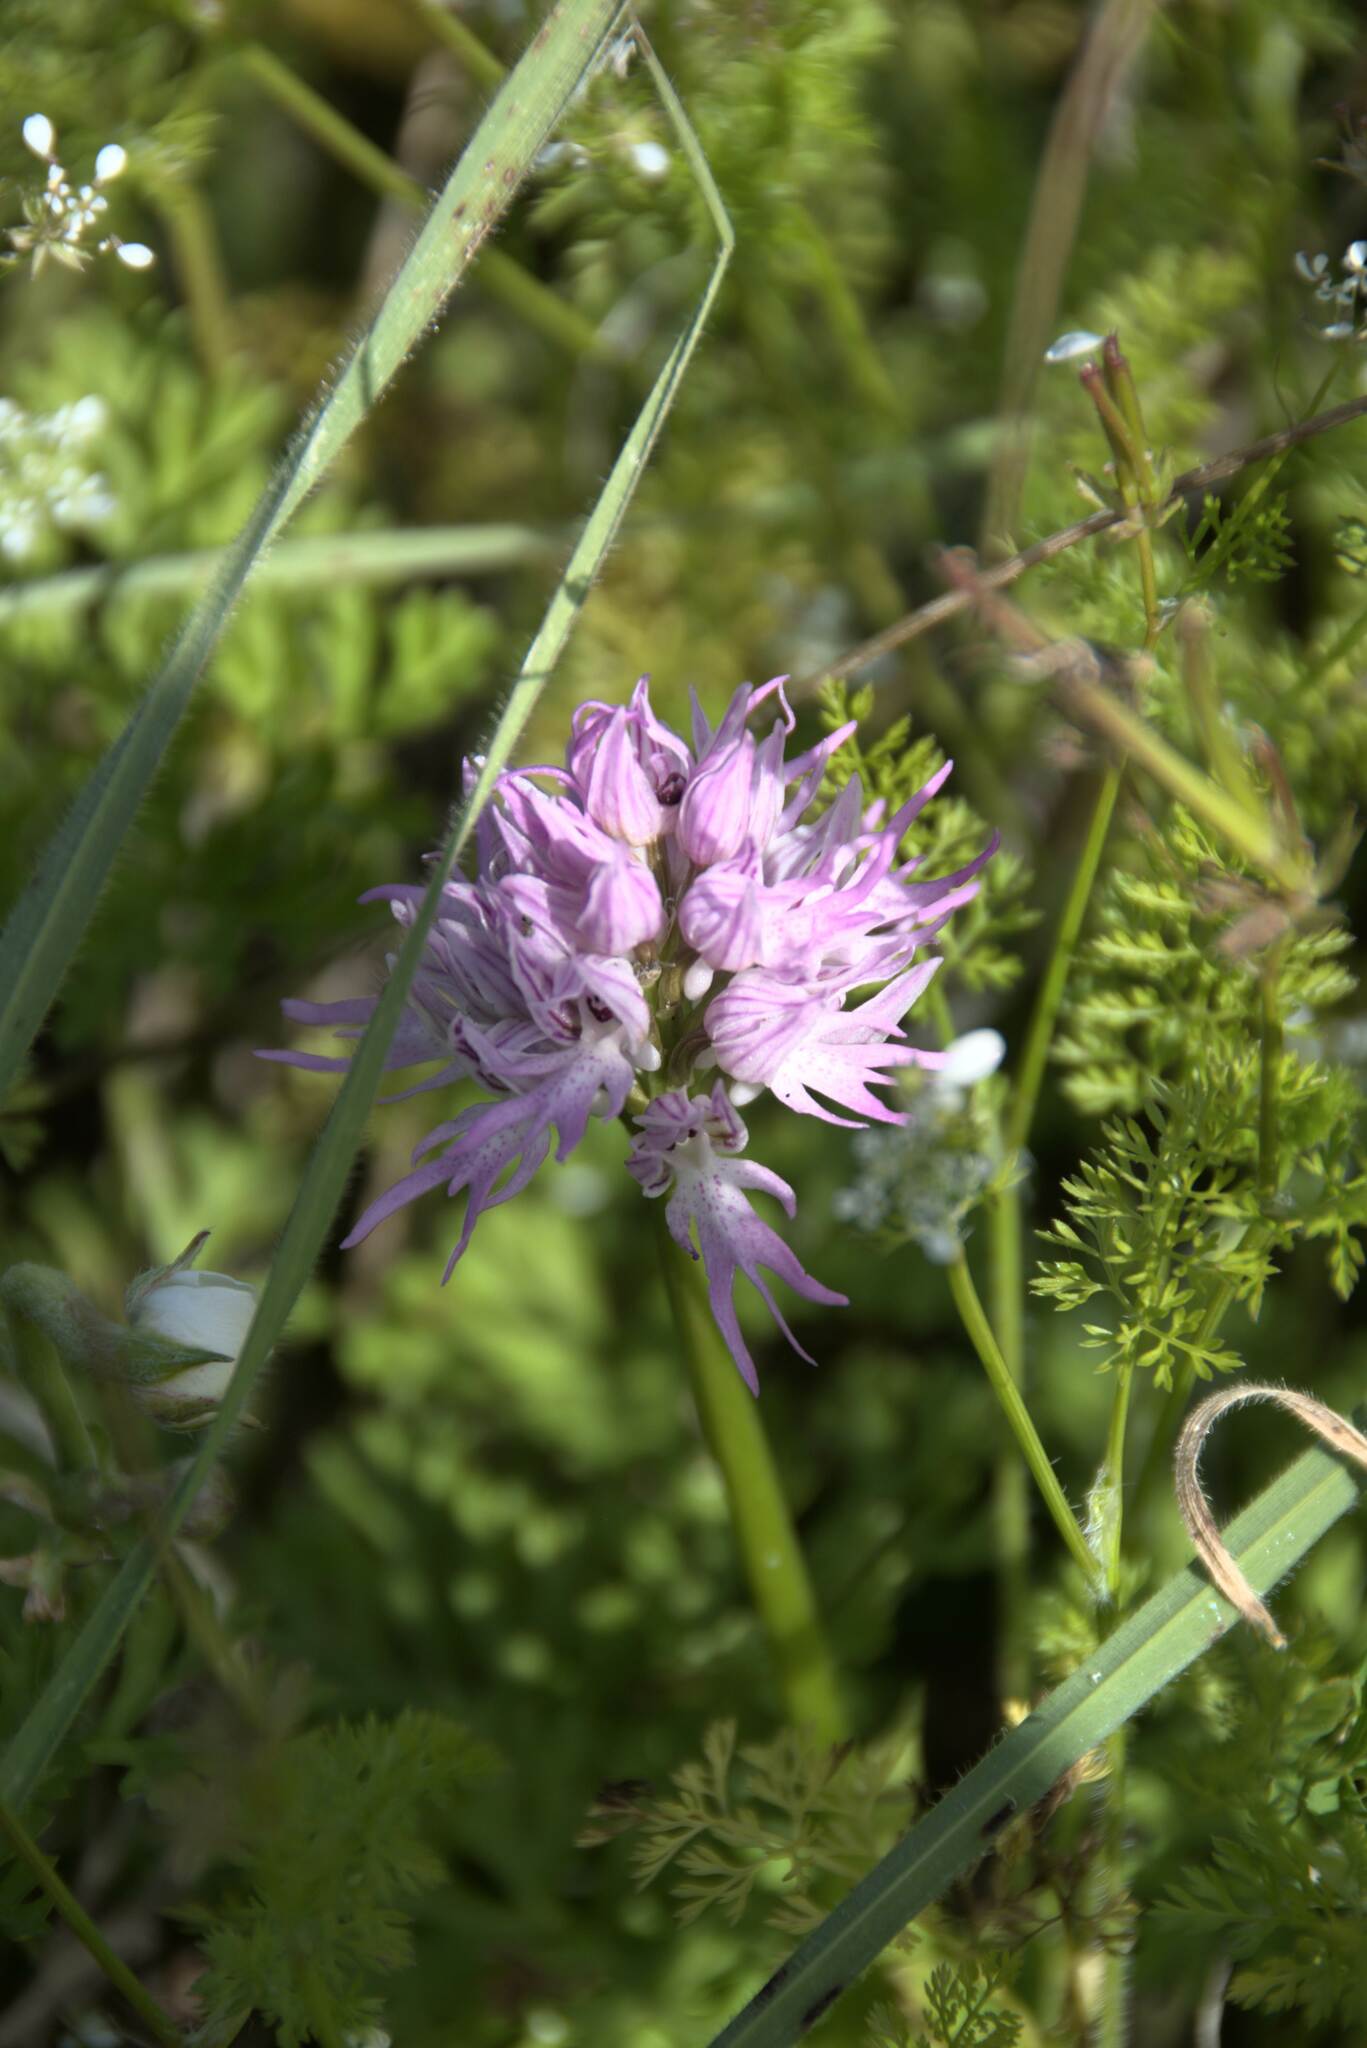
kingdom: Plantae
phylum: Tracheophyta
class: Liliopsida
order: Asparagales
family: Orchidaceae
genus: Orchis
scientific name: Orchis italica
